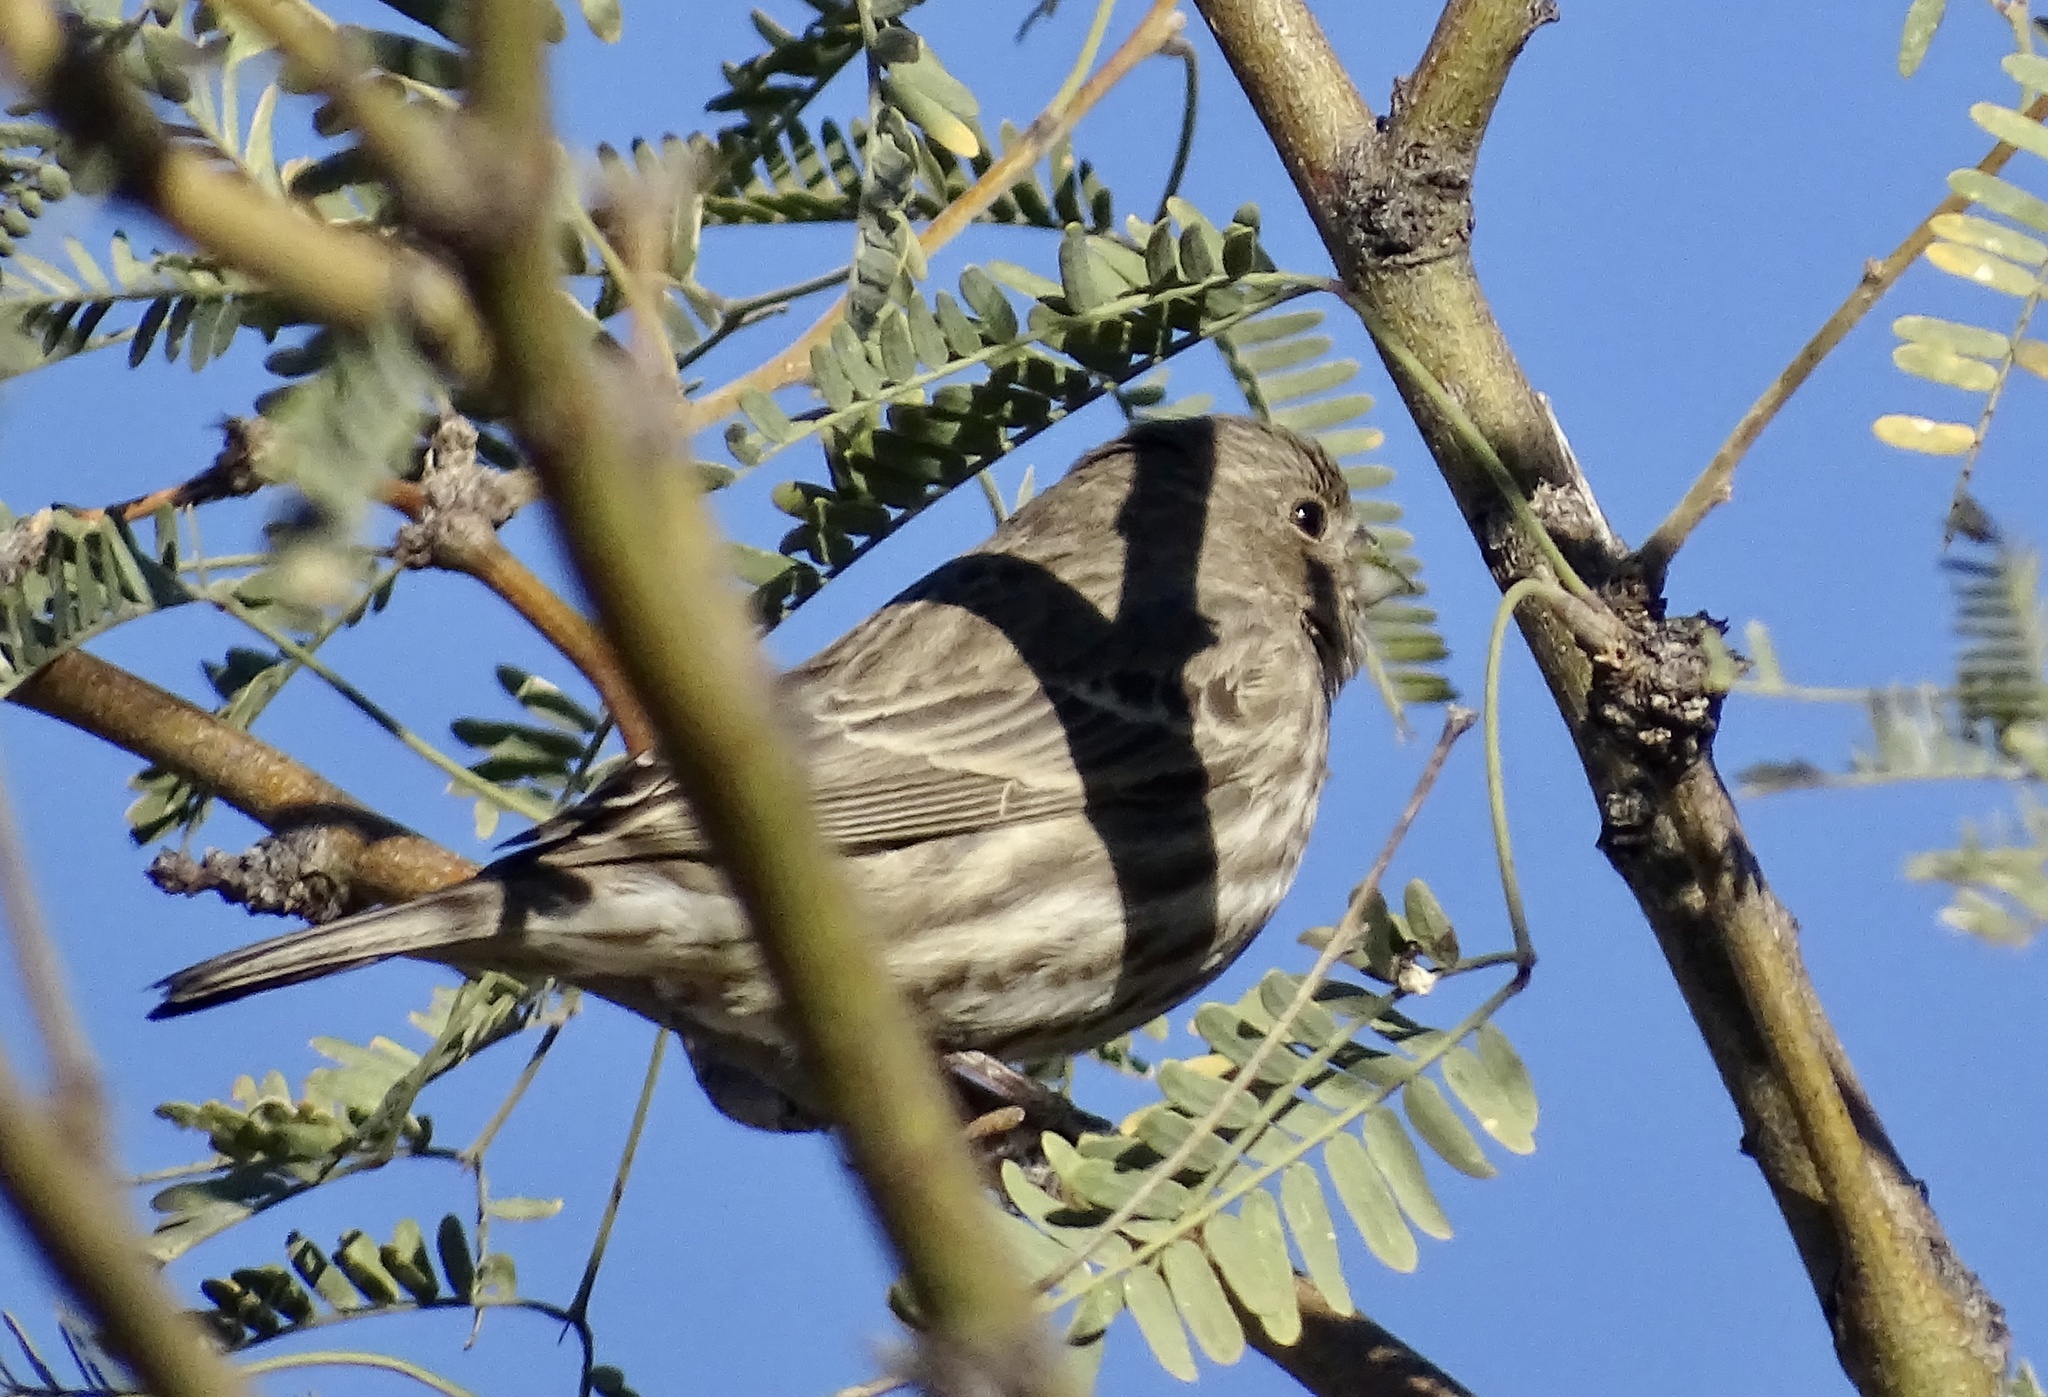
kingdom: Animalia
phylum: Chordata
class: Aves
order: Passeriformes
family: Fringillidae
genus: Haemorhous
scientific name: Haemorhous mexicanus
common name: House finch
